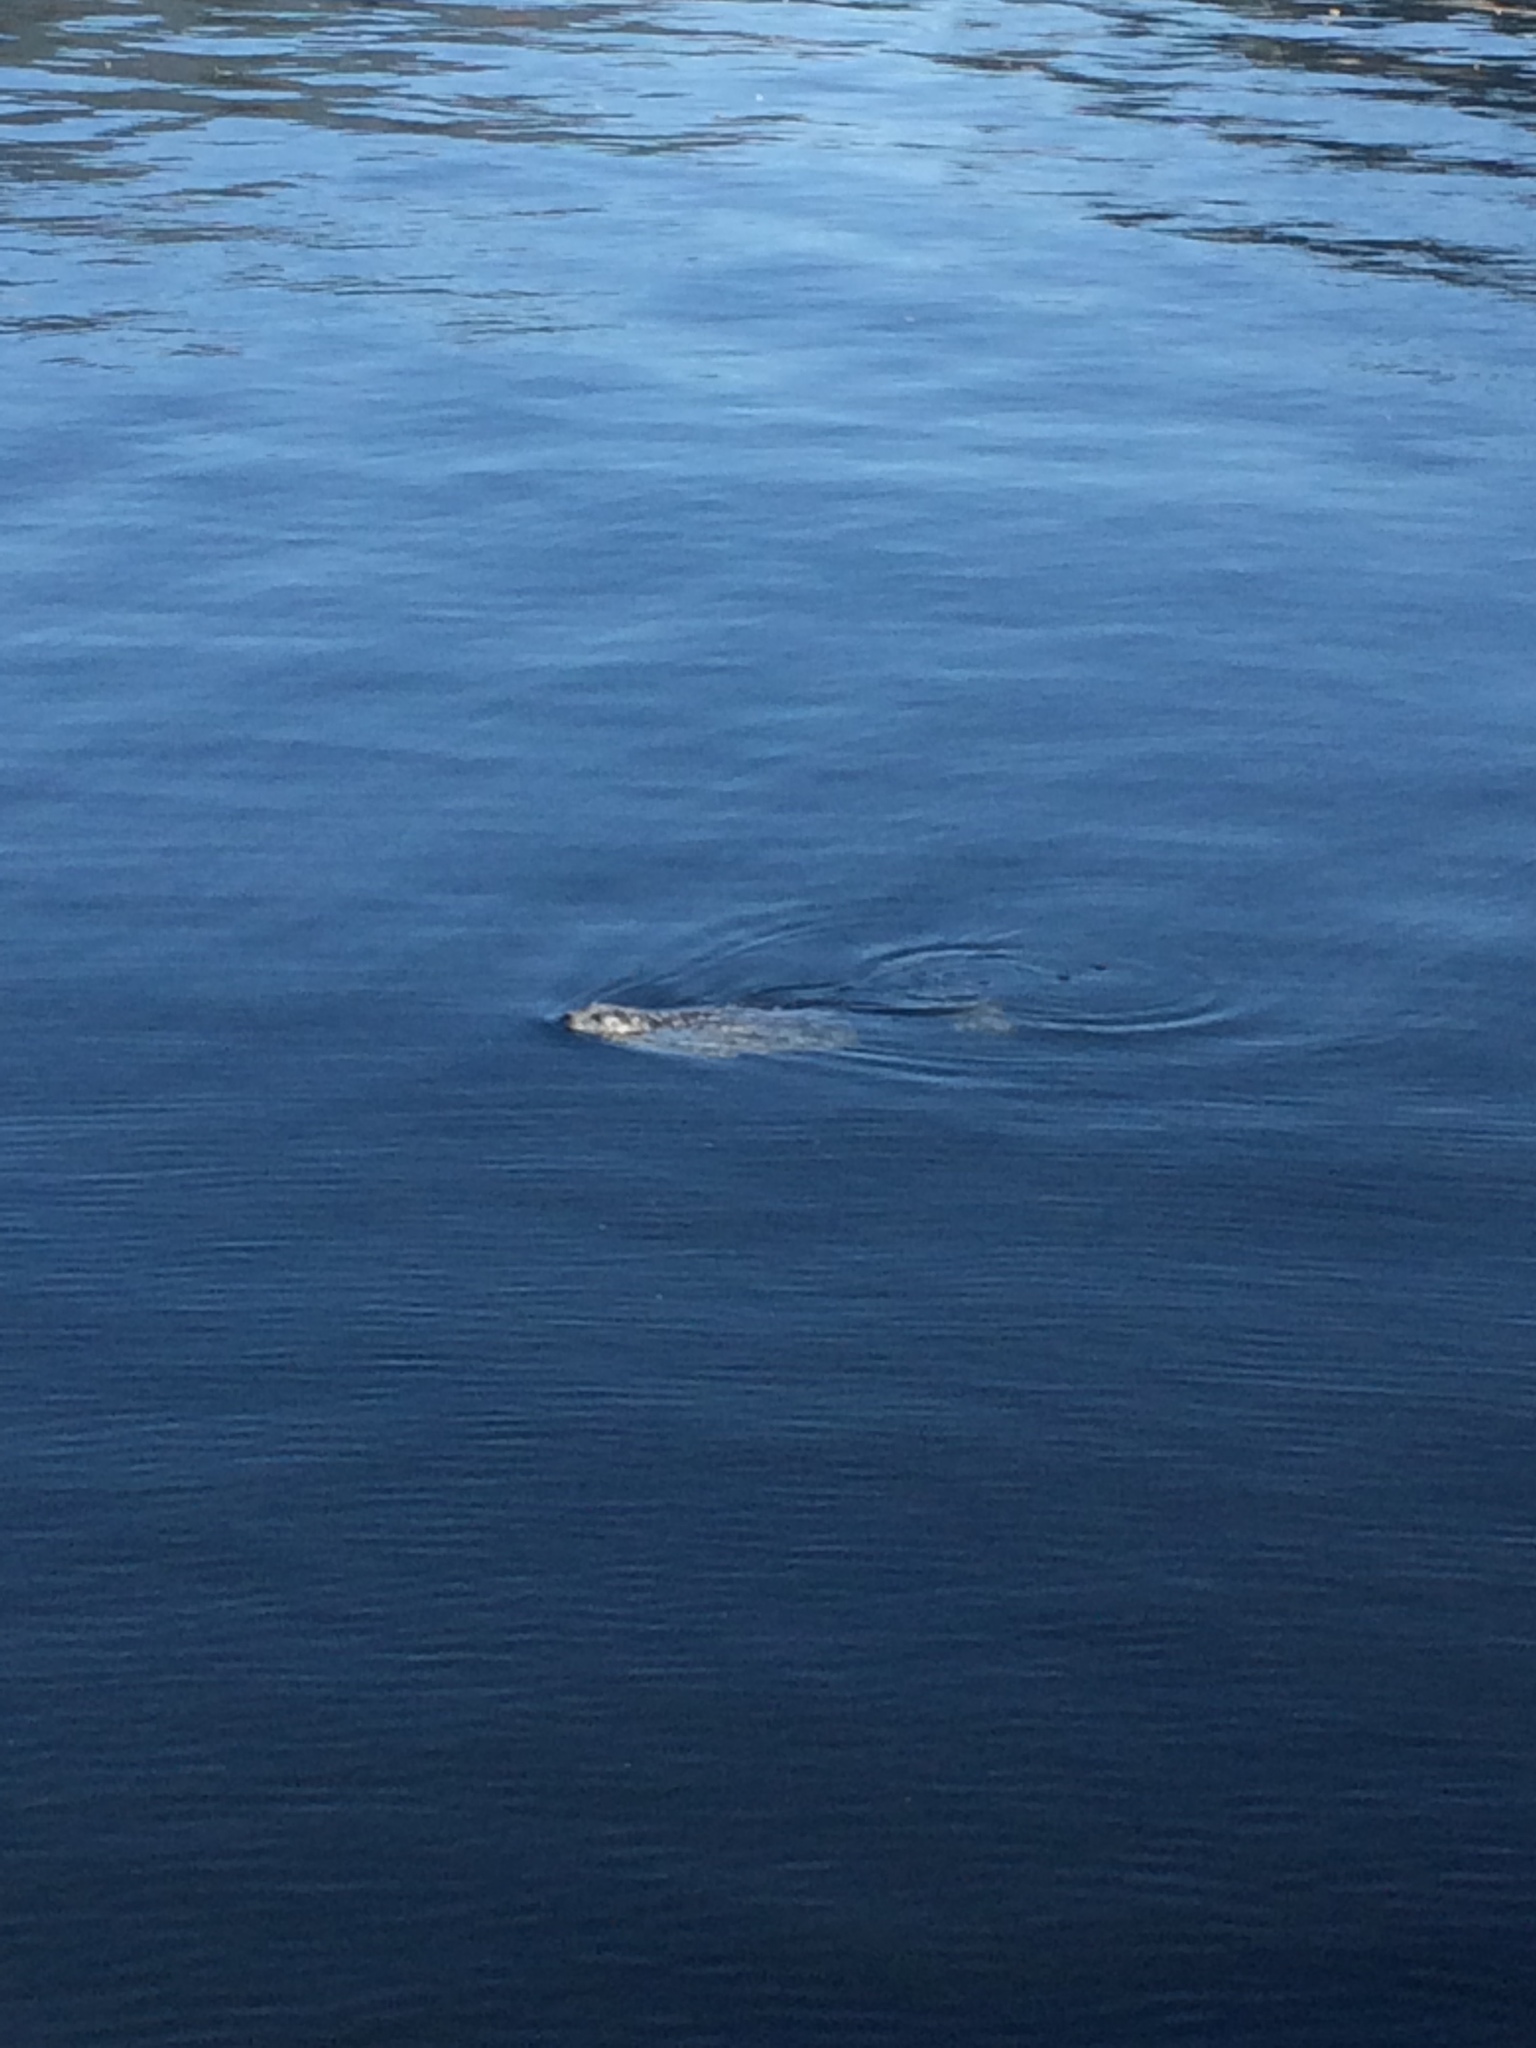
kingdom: Animalia
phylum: Chordata
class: Mammalia
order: Carnivora
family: Phocidae
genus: Phoca
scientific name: Phoca vitulina
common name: Harbor seal
